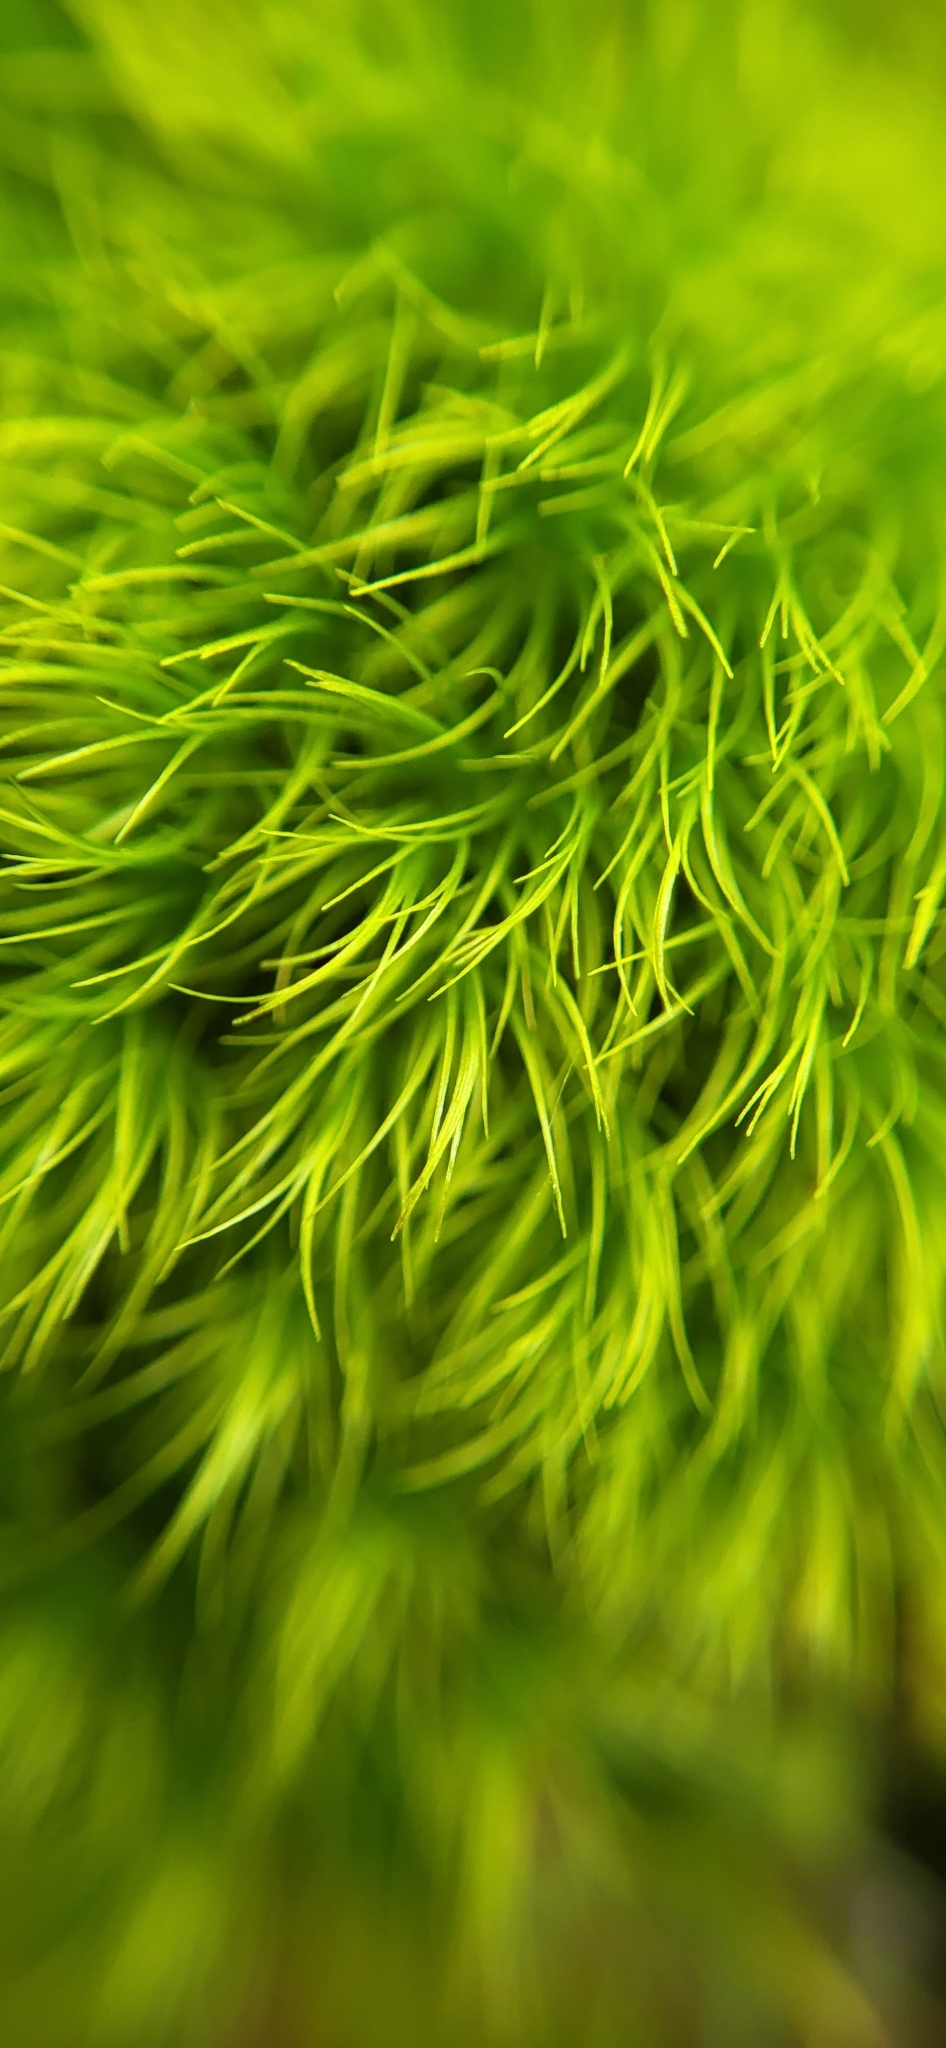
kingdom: Plantae
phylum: Bryophyta
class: Bryopsida
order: Dicranales
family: Leucobryaceae
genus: Leucobryum
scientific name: Leucobryum glaucum
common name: Large white-moss
